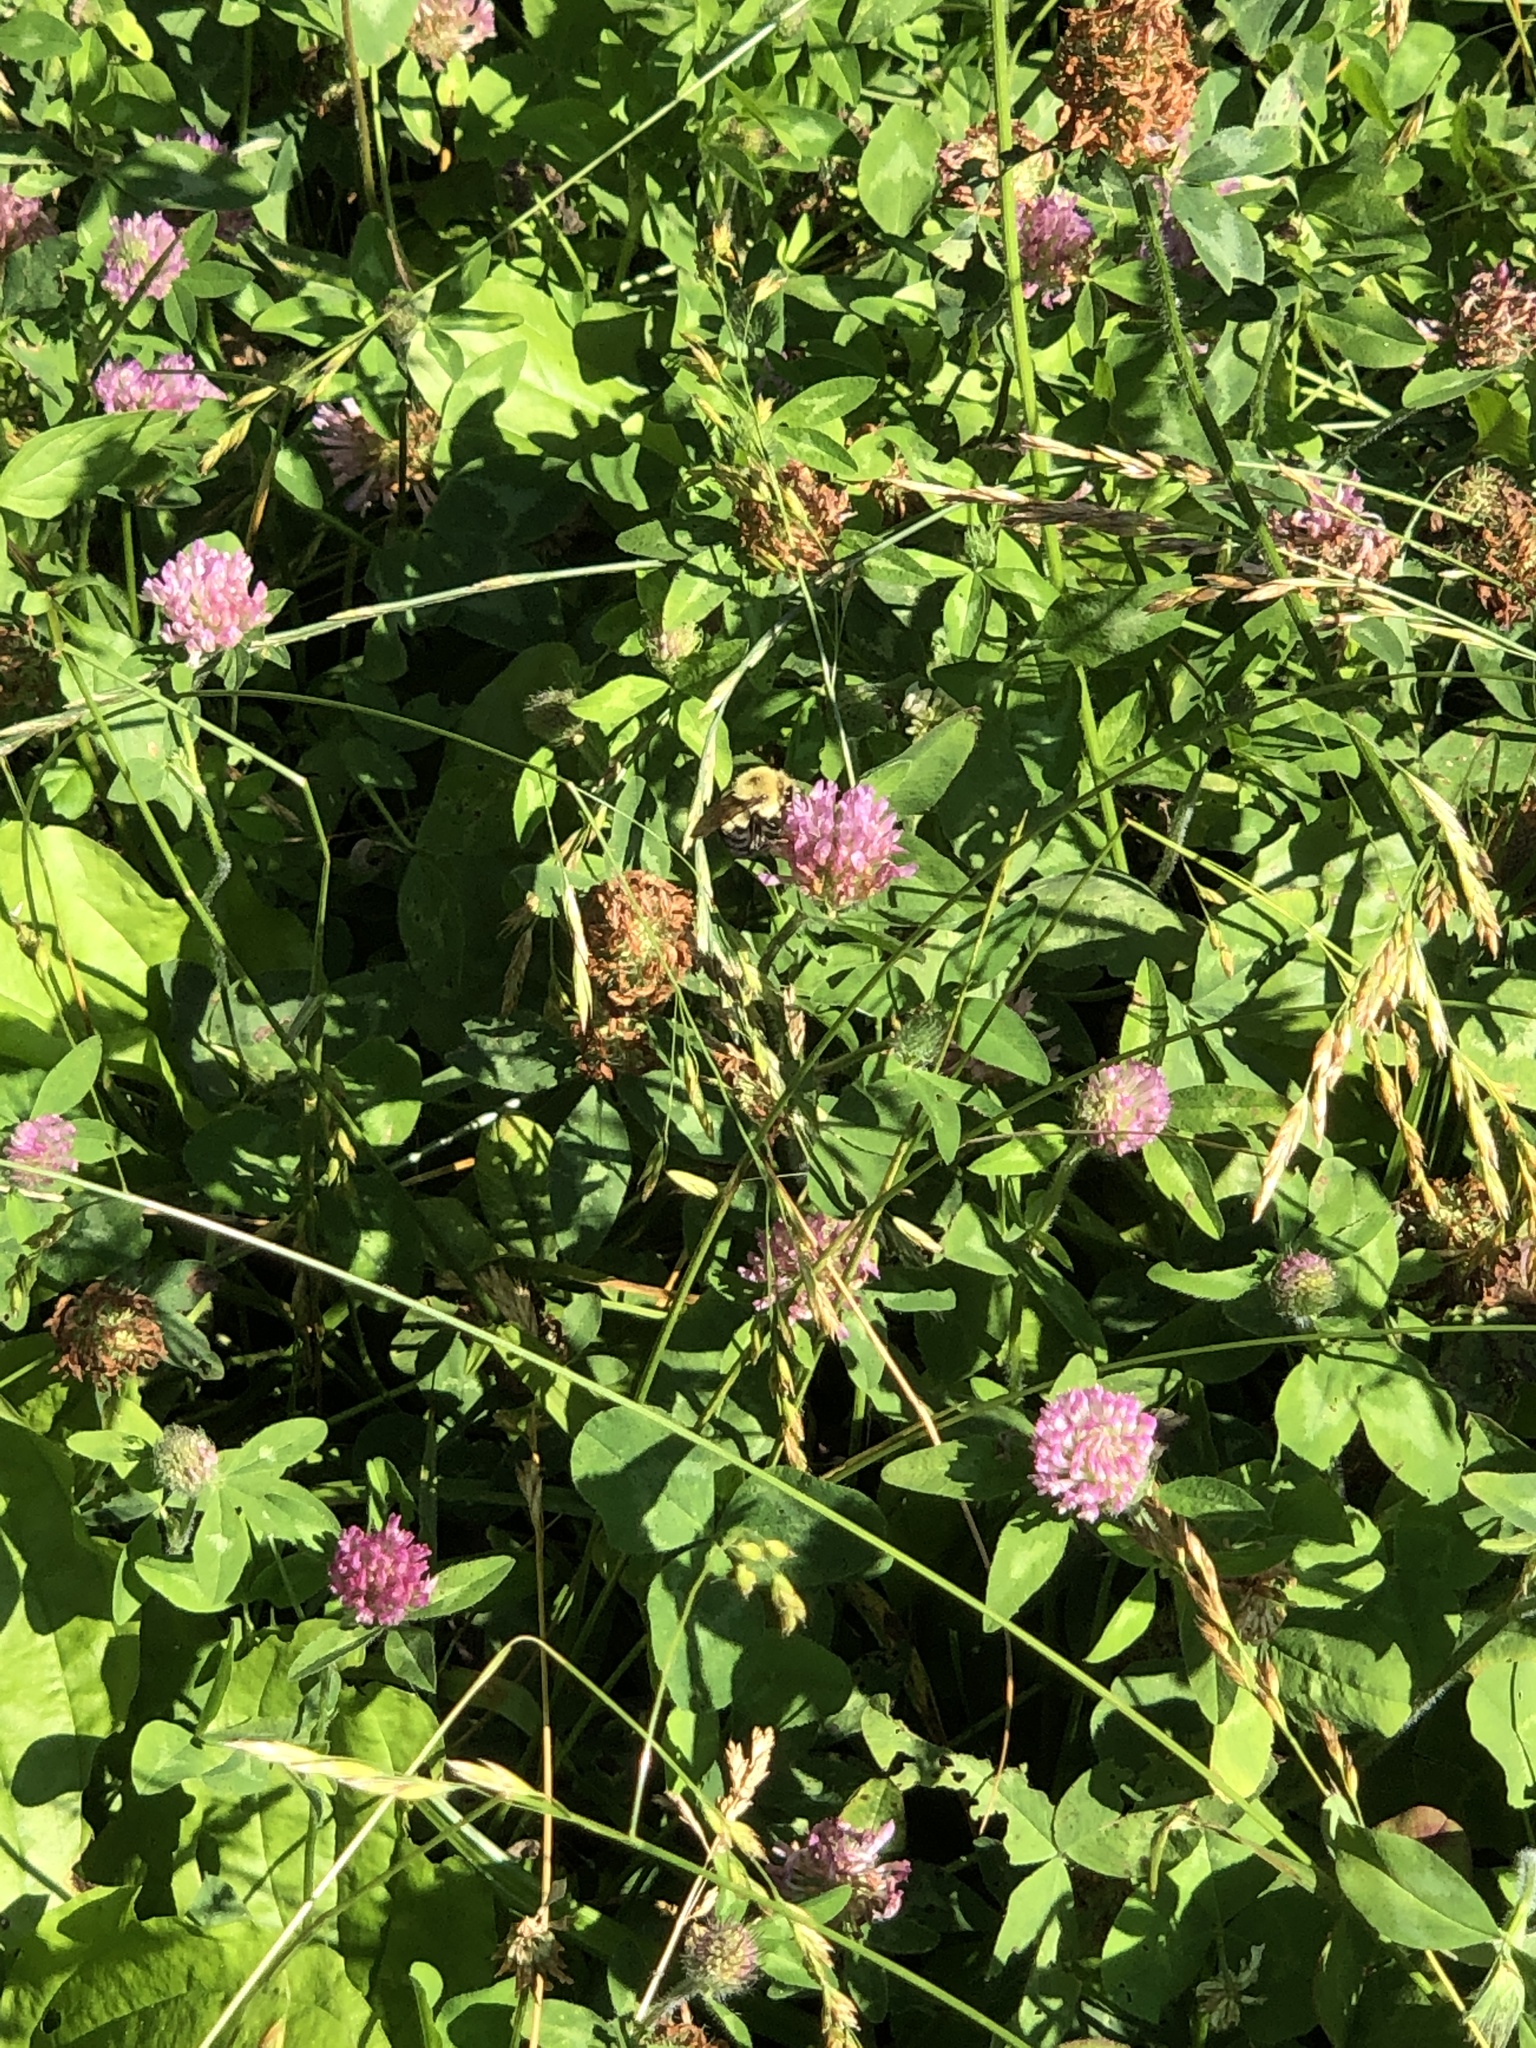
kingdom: Plantae
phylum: Tracheophyta
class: Magnoliopsida
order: Fabales
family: Fabaceae
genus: Trifolium
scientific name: Trifolium pratense
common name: Red clover
